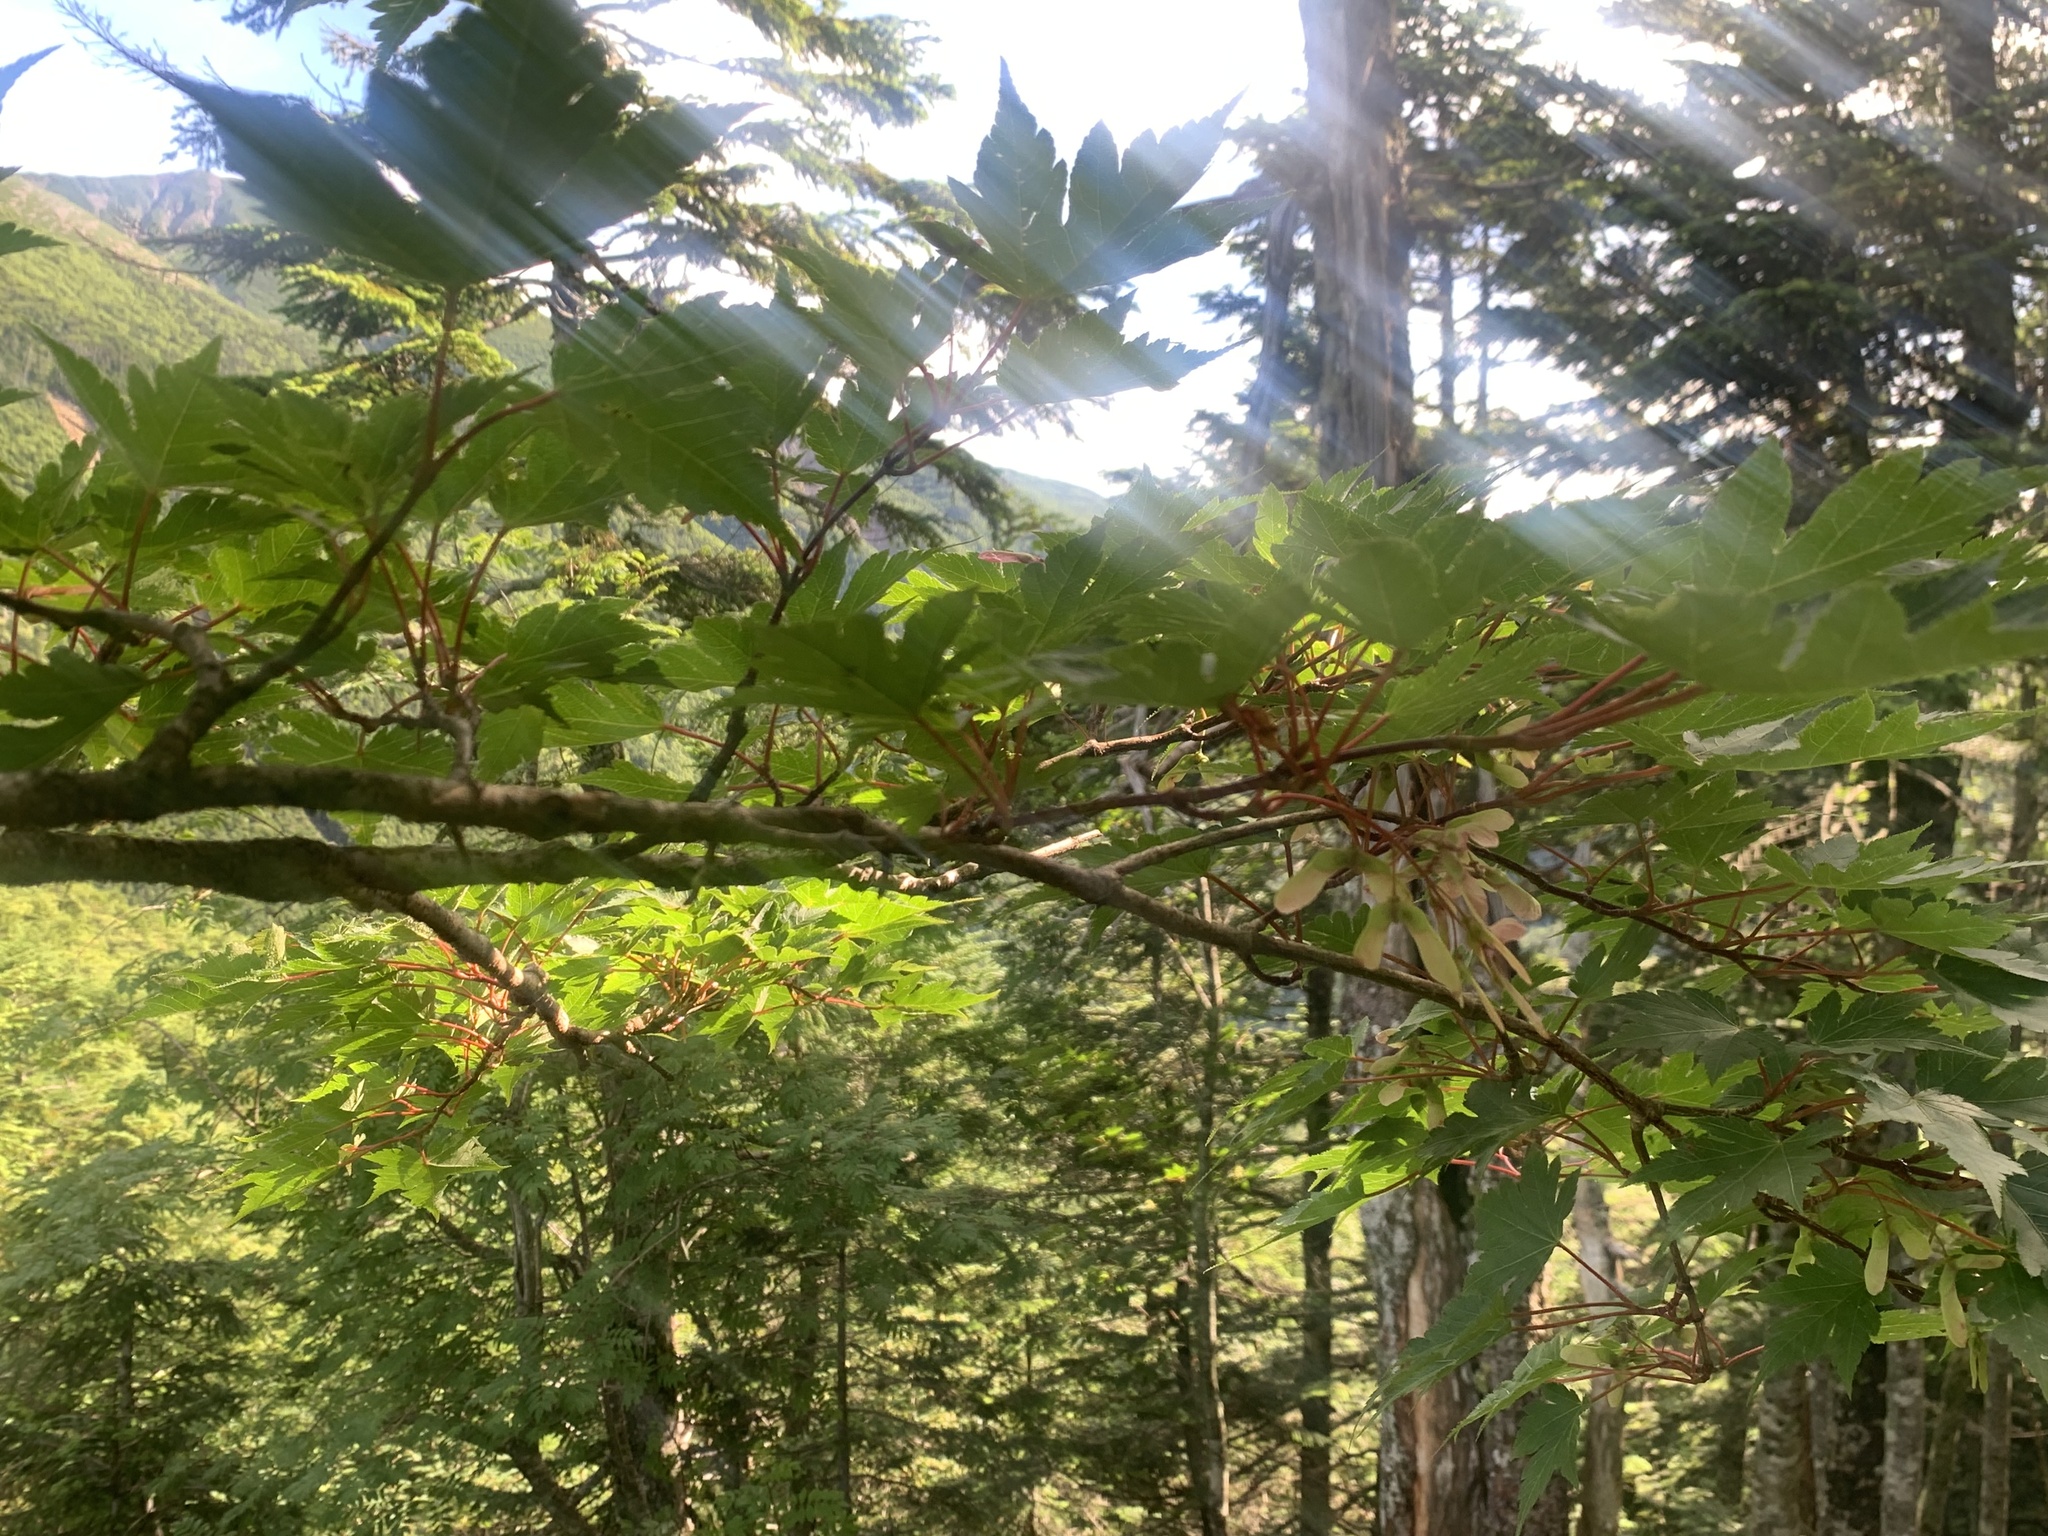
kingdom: Plantae
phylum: Tracheophyta
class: Magnoliopsida
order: Sapindales
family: Sapindaceae
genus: Acer
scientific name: Acer tschonoskii
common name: Tschonoski’s maple
